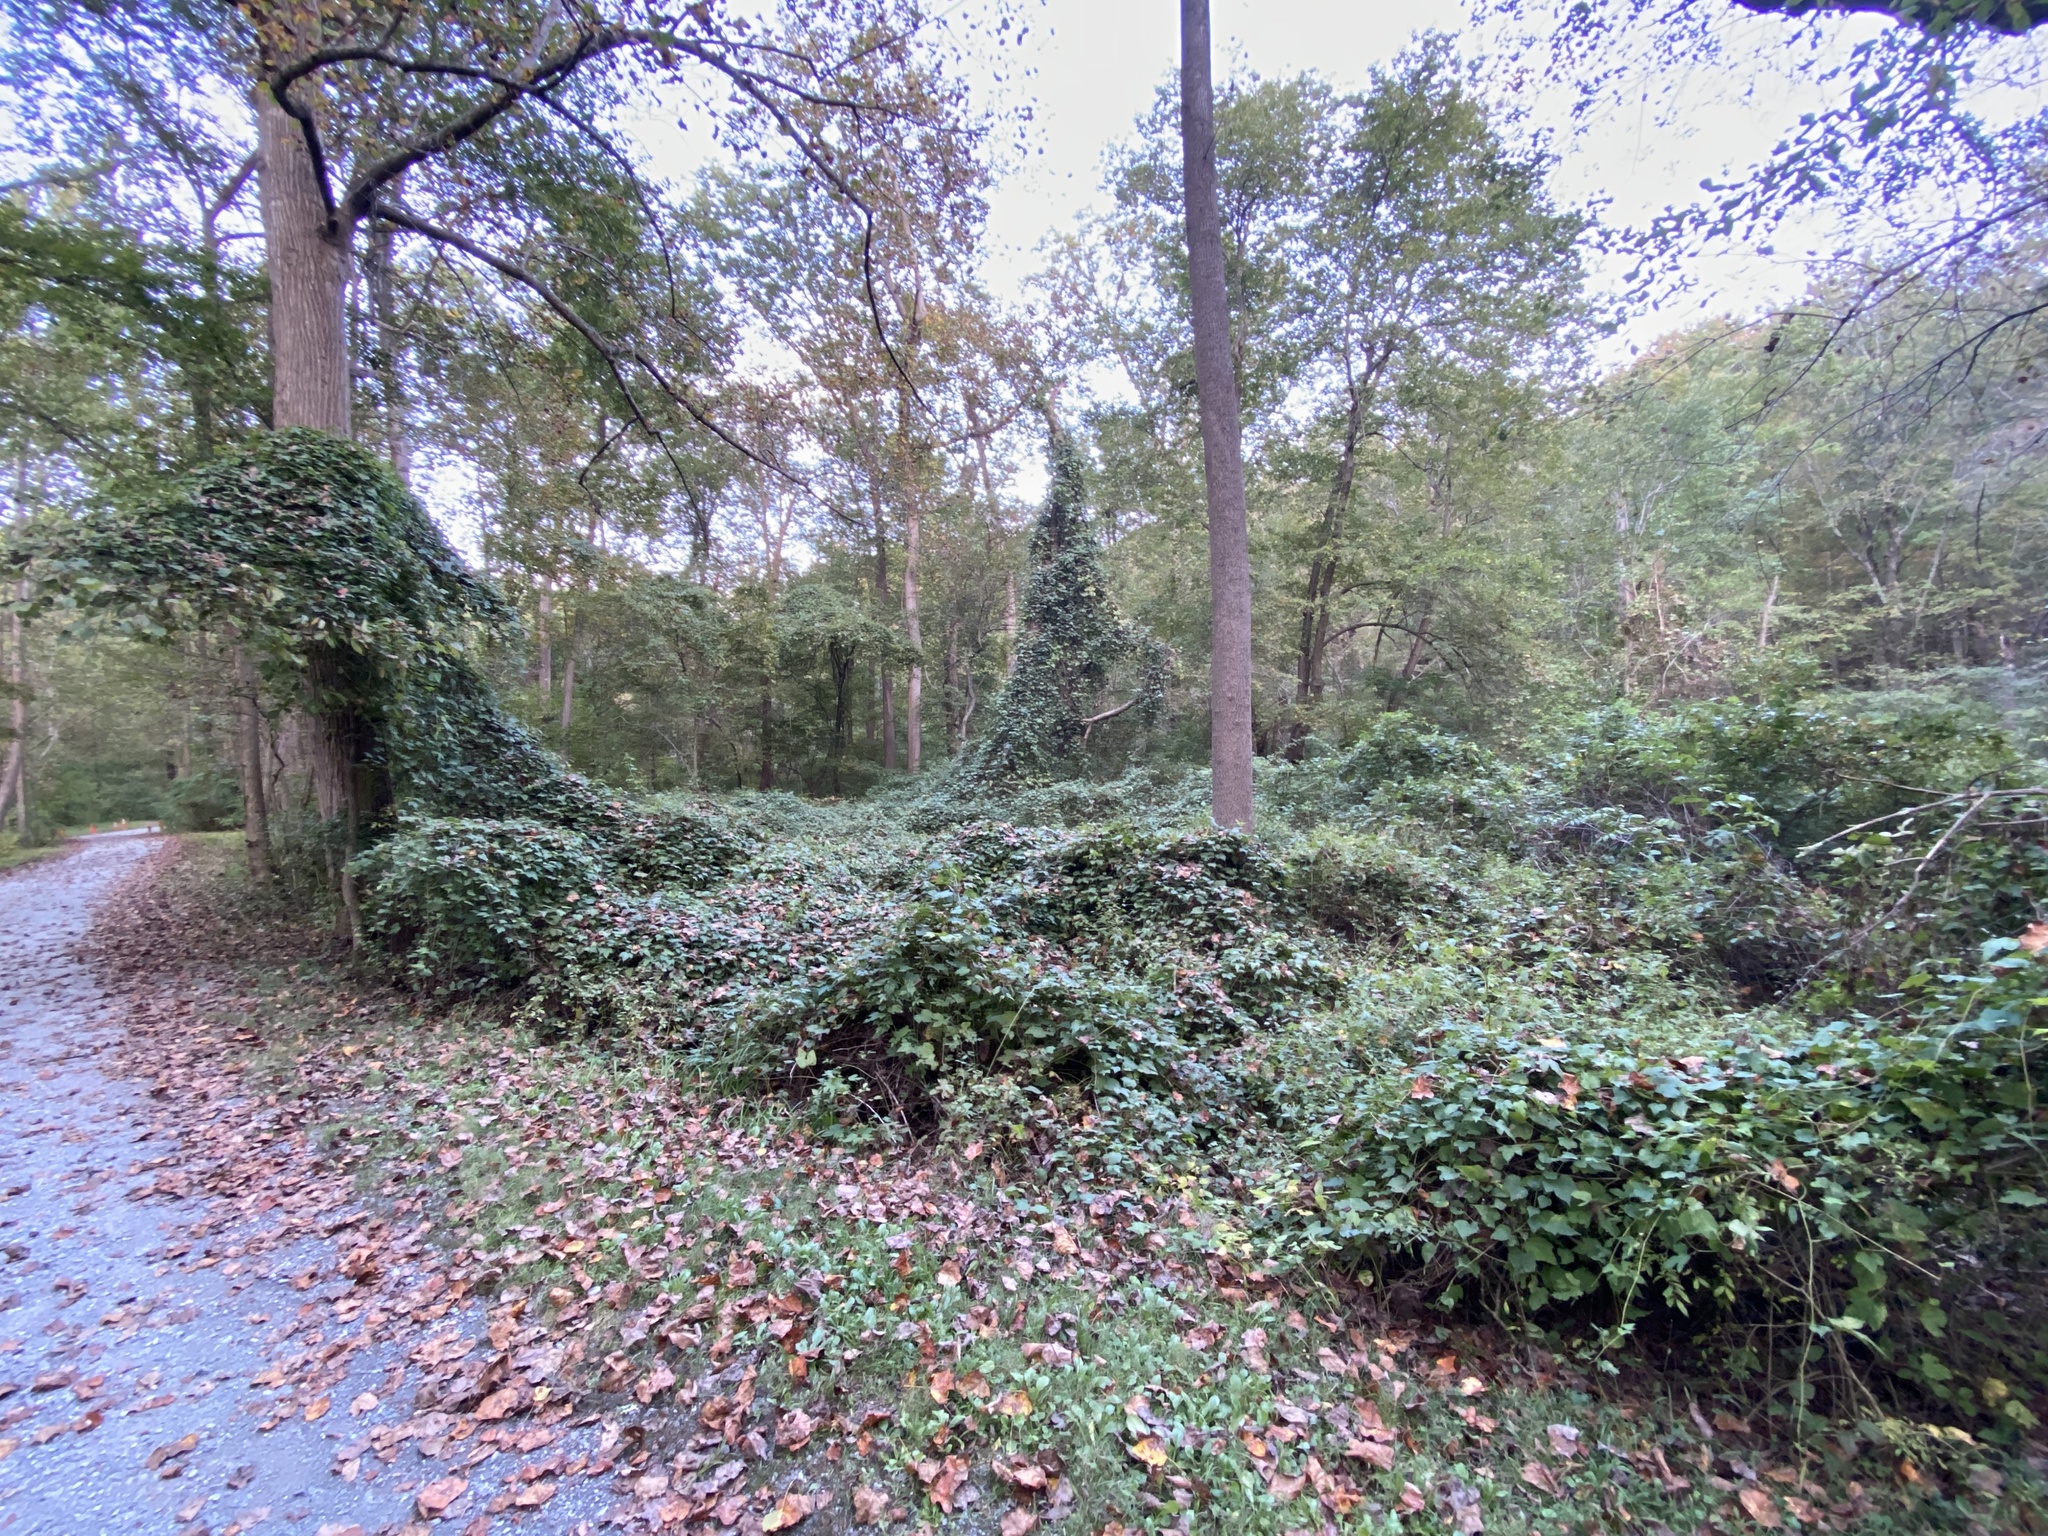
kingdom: Plantae
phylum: Tracheophyta
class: Magnoliopsida
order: Vitales
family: Vitaceae
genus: Ampelopsis
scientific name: Ampelopsis glandulosa
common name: Amur peppervine
